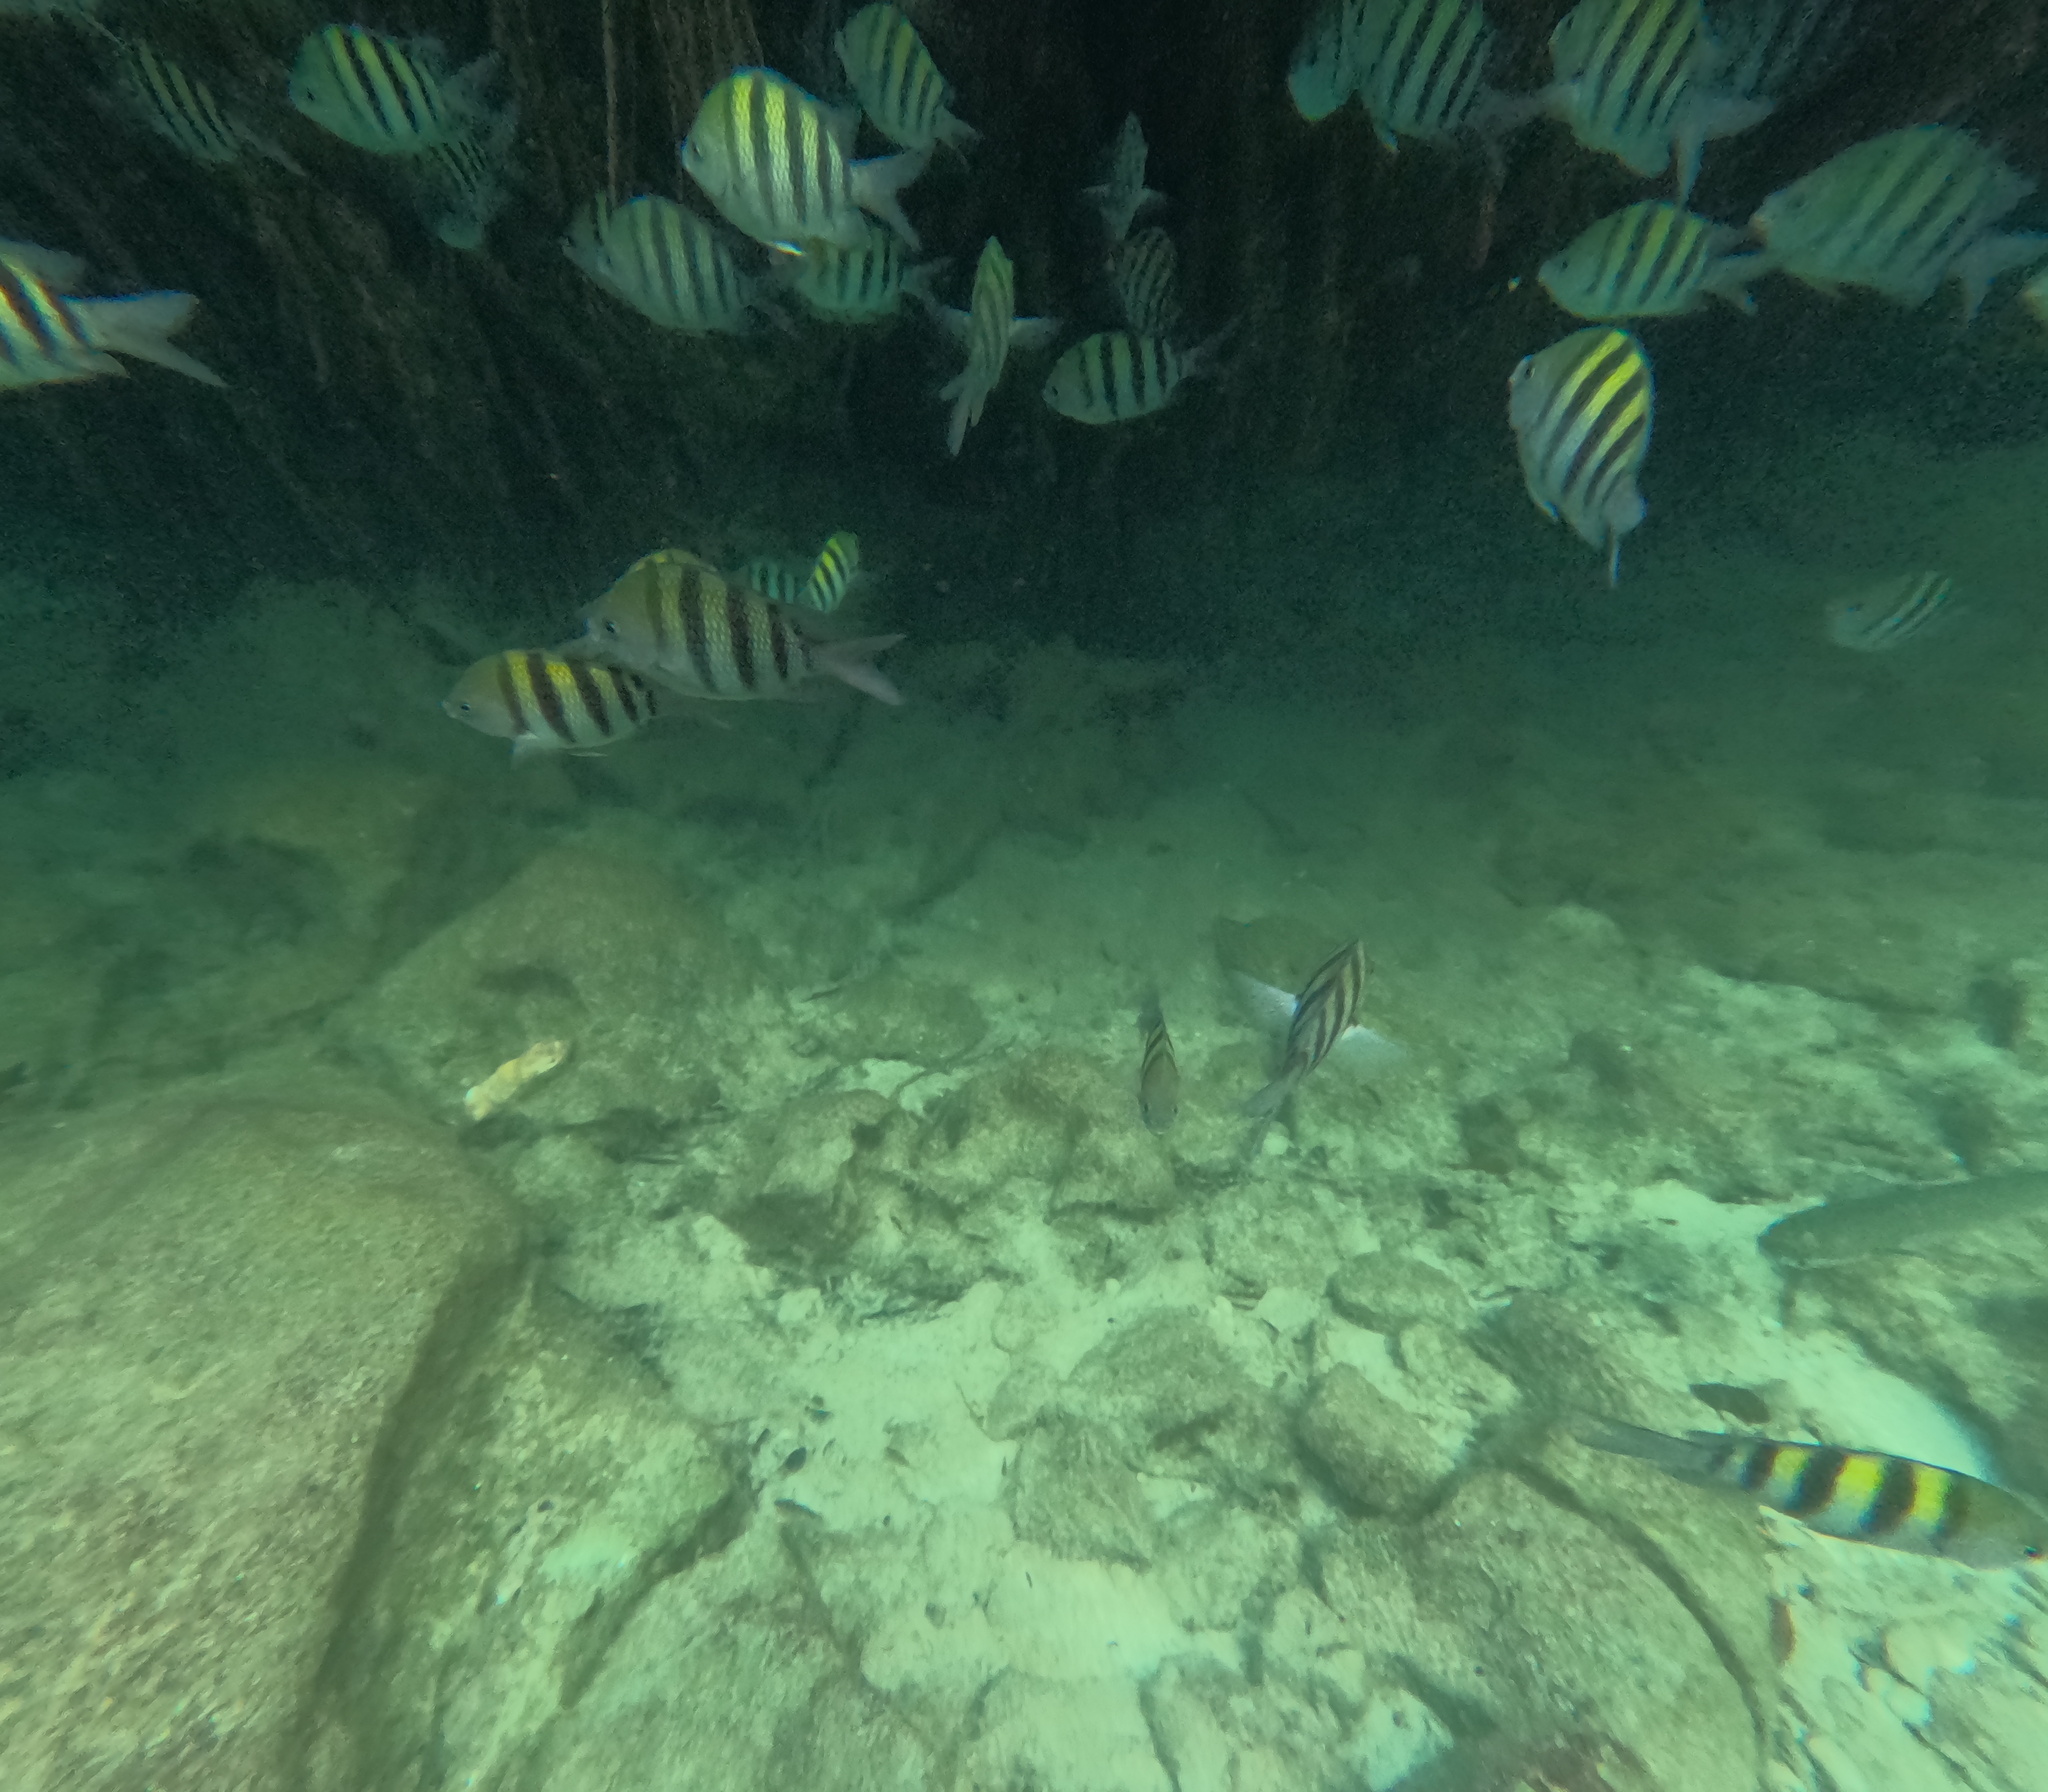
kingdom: Animalia
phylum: Chordata
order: Perciformes
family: Pomacentridae
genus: Abudefduf
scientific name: Abudefduf saxatilis
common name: Sergeant major
